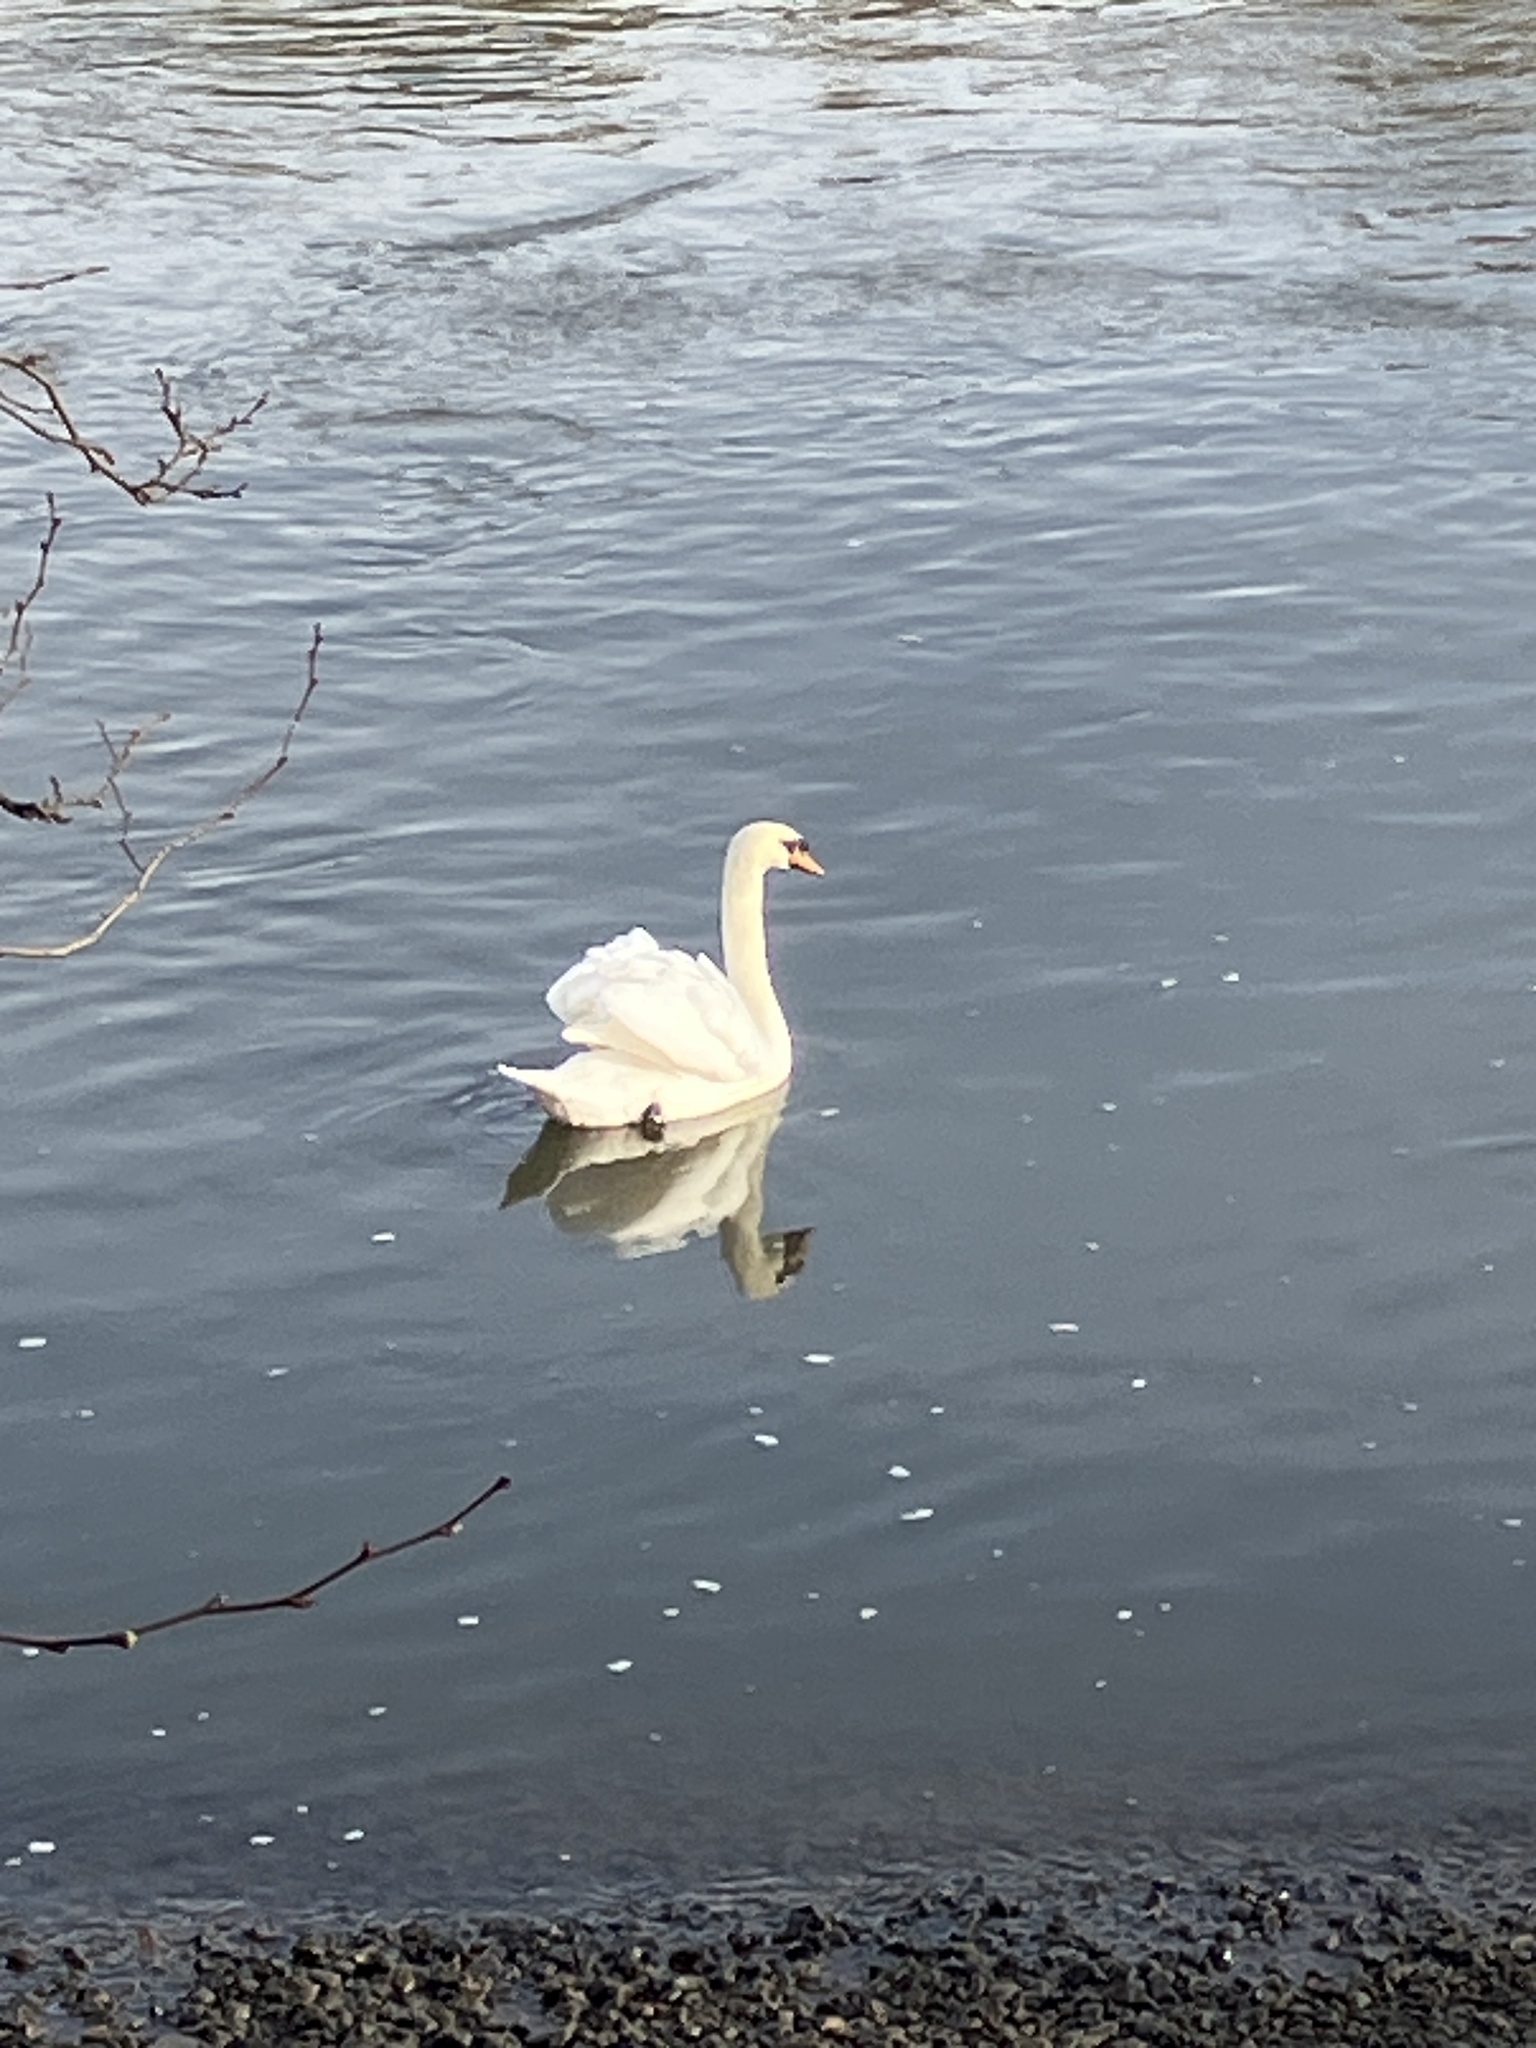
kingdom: Animalia
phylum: Chordata
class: Aves
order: Anseriformes
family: Anatidae
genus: Cygnus
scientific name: Cygnus olor
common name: Mute swan
